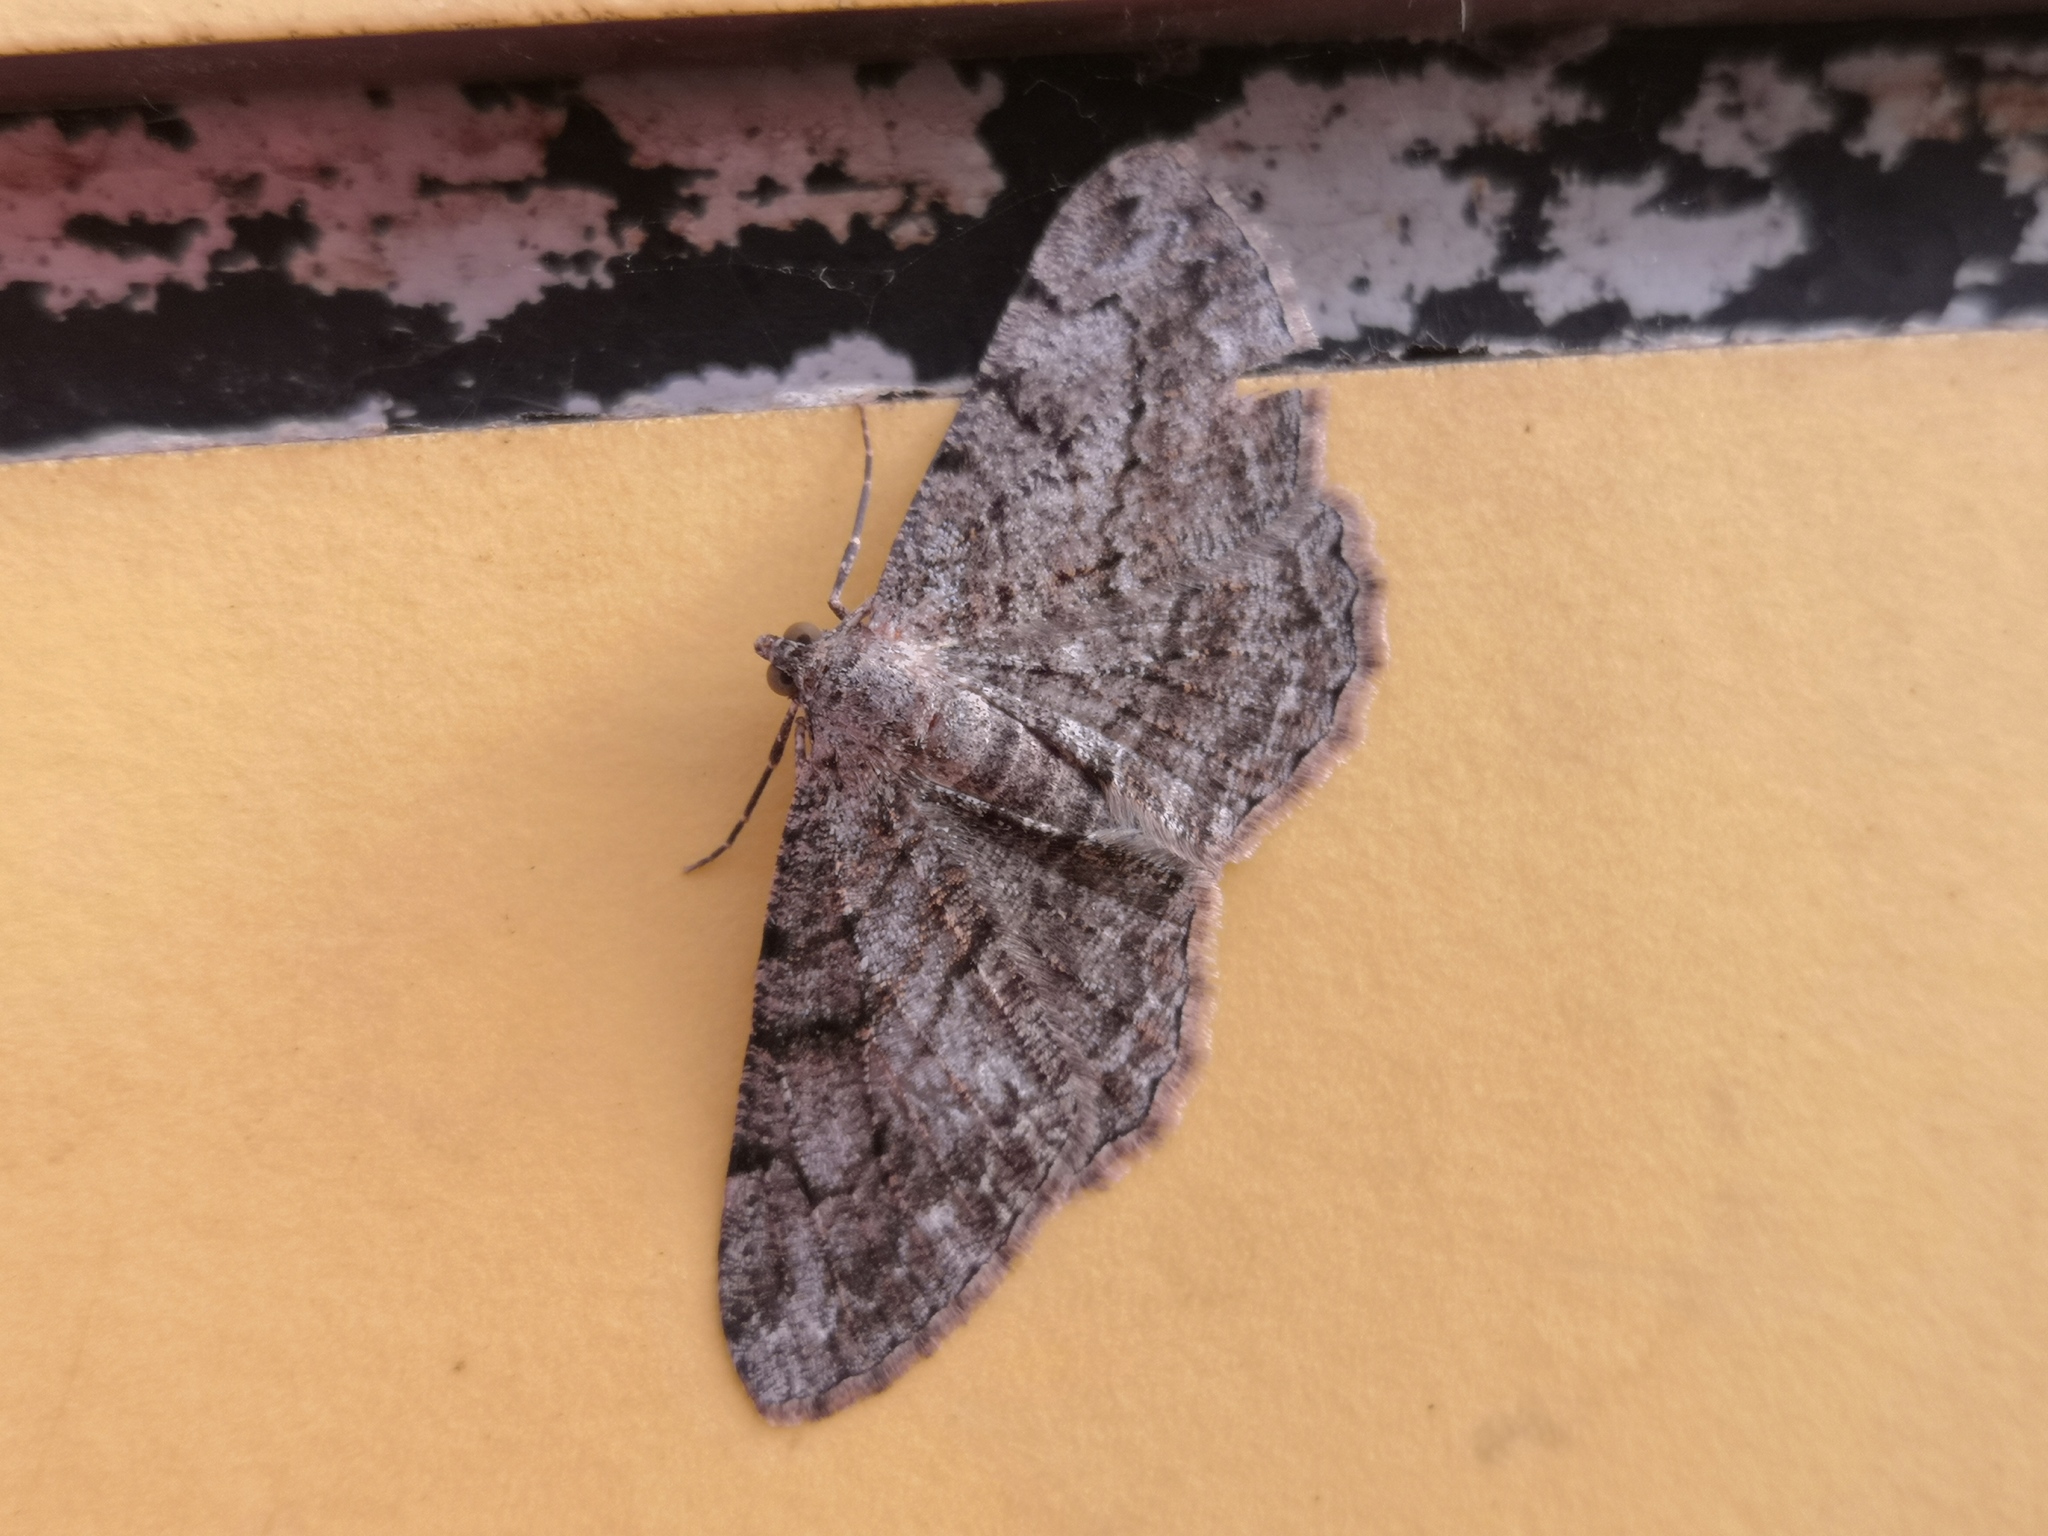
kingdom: Animalia
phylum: Arthropoda
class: Insecta
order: Lepidoptera
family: Geometridae
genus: Peribatodes
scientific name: Peribatodes rhomboidaria
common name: Willow beauty
